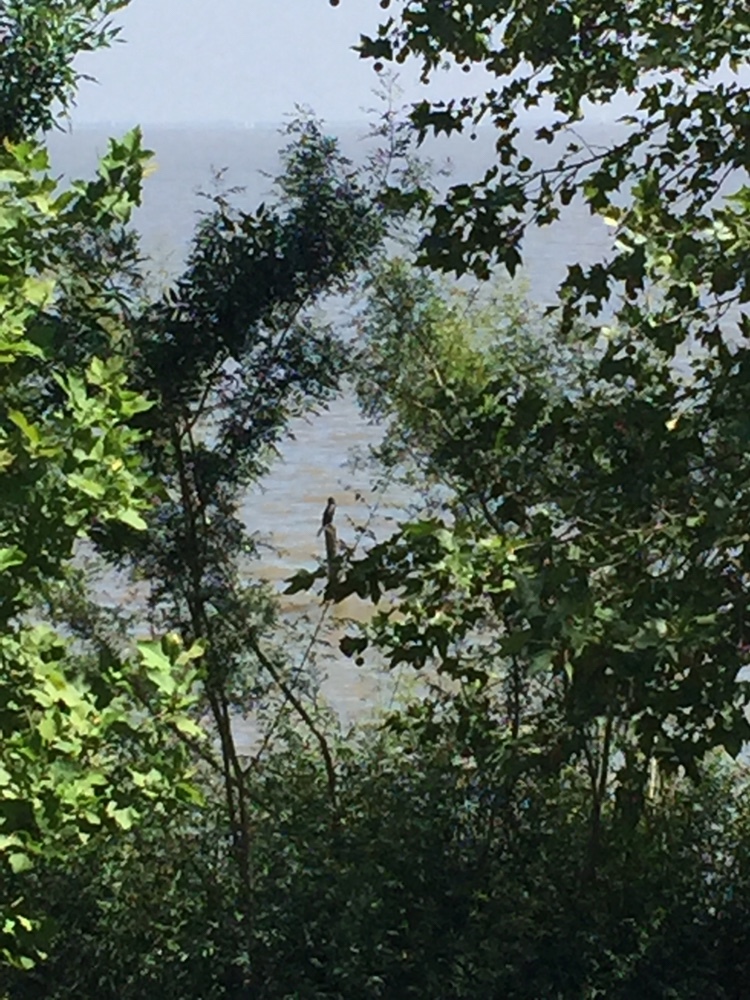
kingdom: Animalia
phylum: Chordata
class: Aves
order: Suliformes
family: Phalacrocoracidae
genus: Phalacrocorax
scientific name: Phalacrocorax brasilianus
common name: Neotropic cormorant
